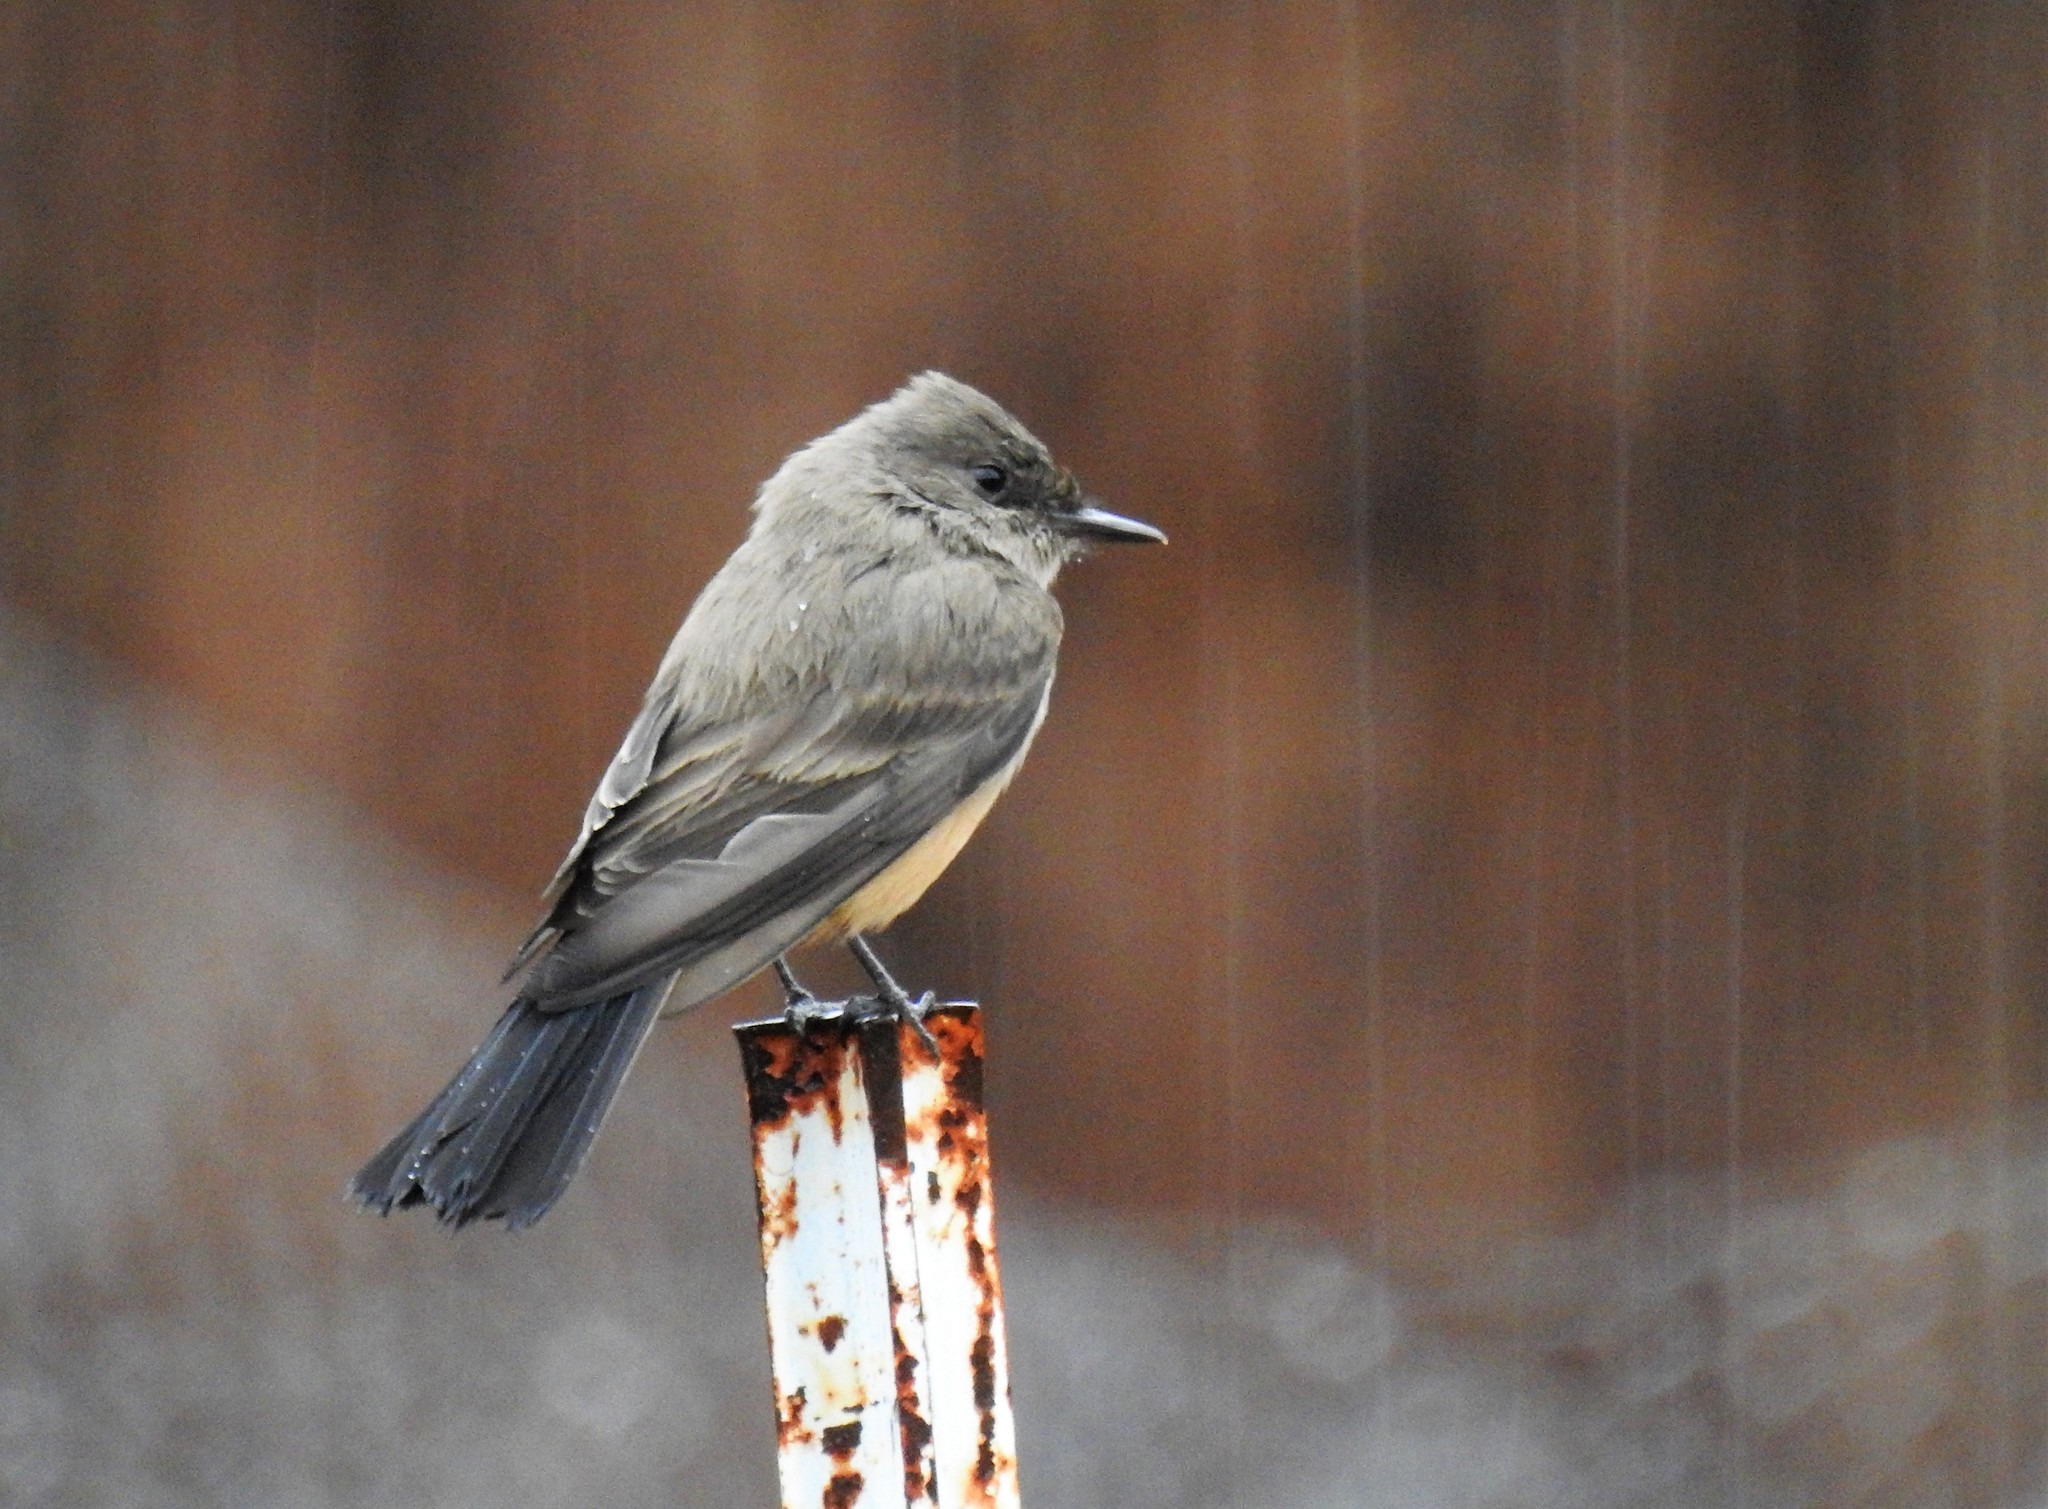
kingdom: Animalia
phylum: Chordata
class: Aves
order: Passeriformes
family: Tyrannidae
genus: Sayornis
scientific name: Sayornis saya
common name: Say's phoebe
